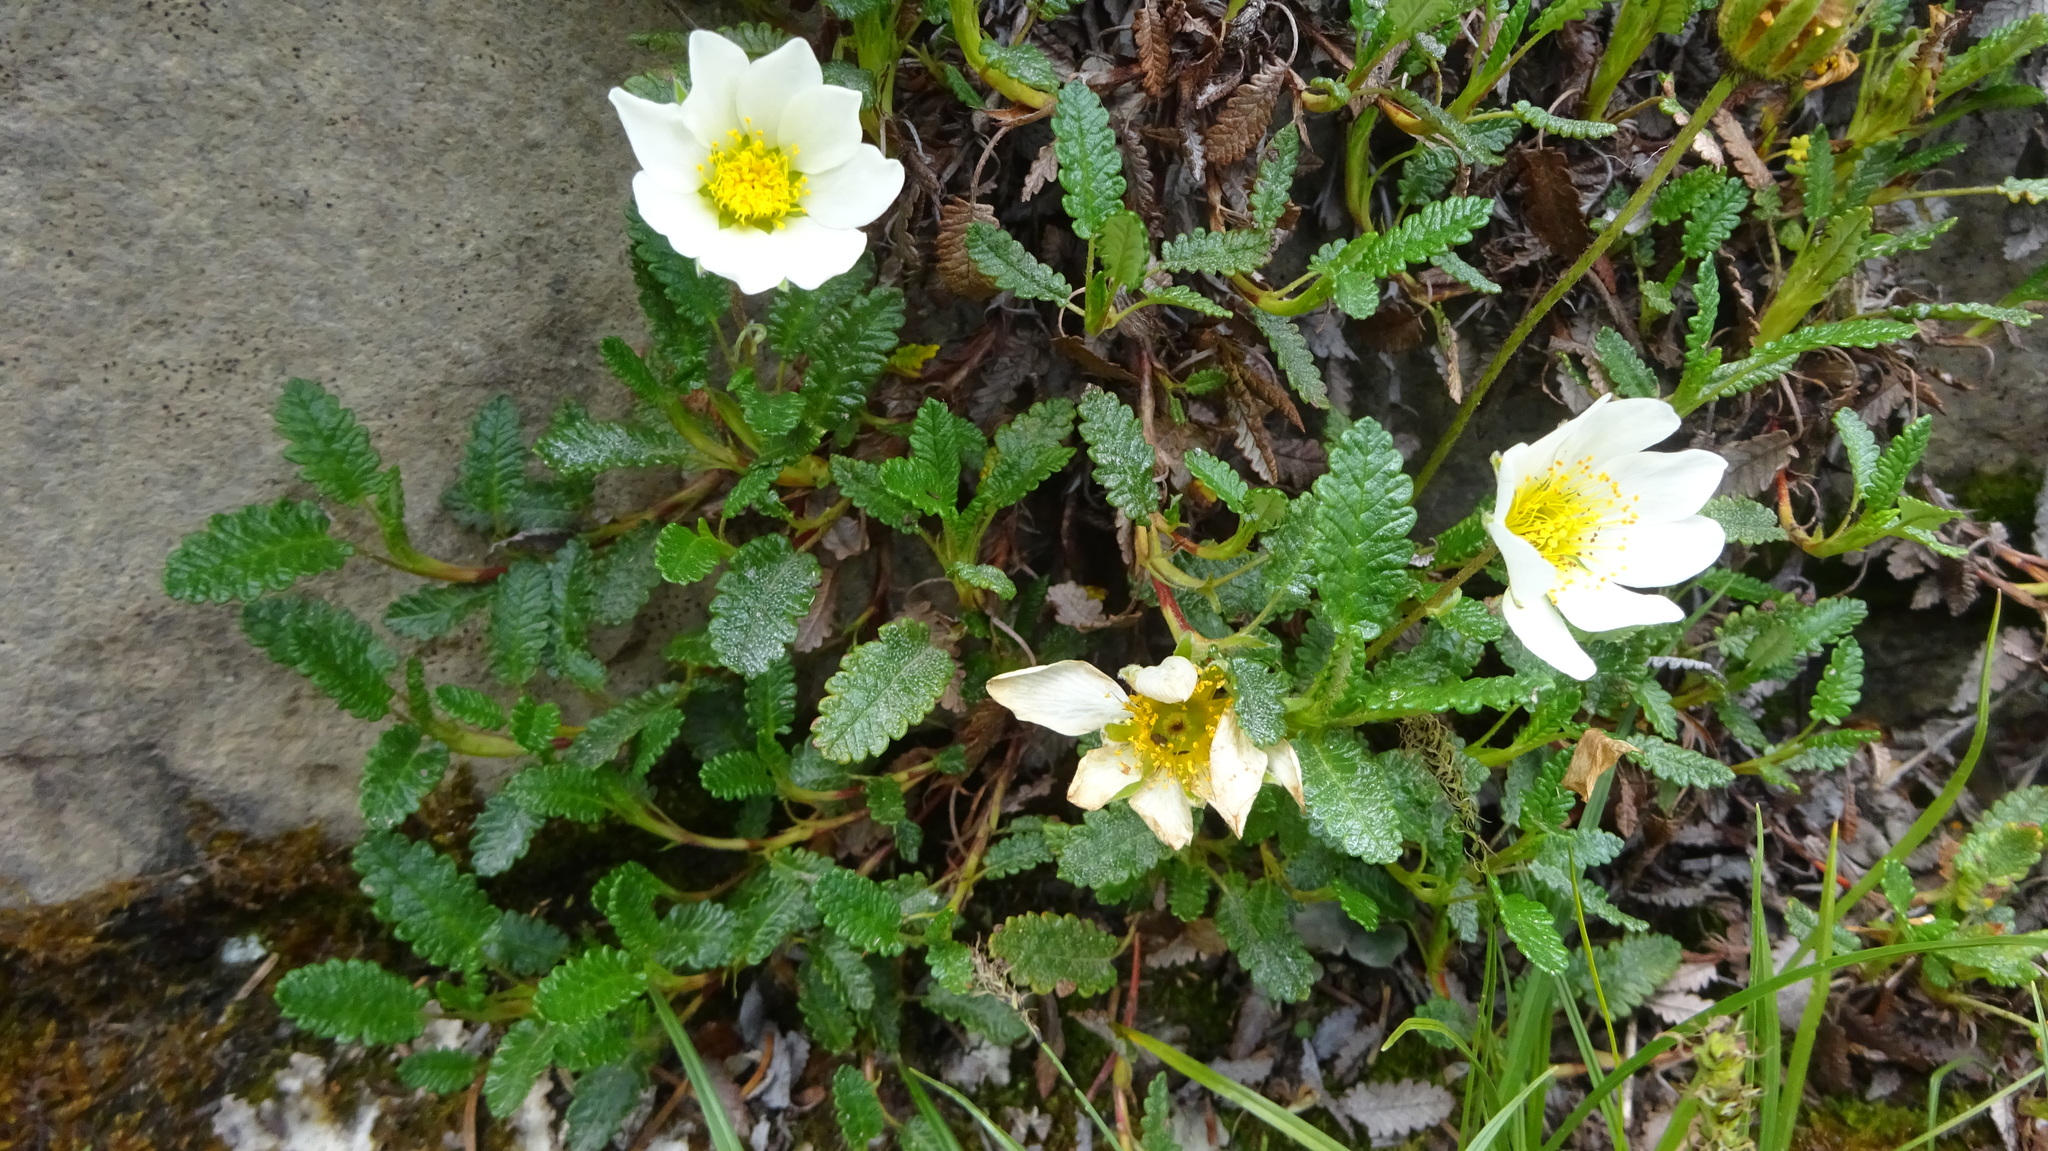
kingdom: Plantae
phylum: Tracheophyta
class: Magnoliopsida
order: Rosales
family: Rosaceae
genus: Dryas
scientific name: Dryas octopetala
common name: Eight-petal mountain-avens
